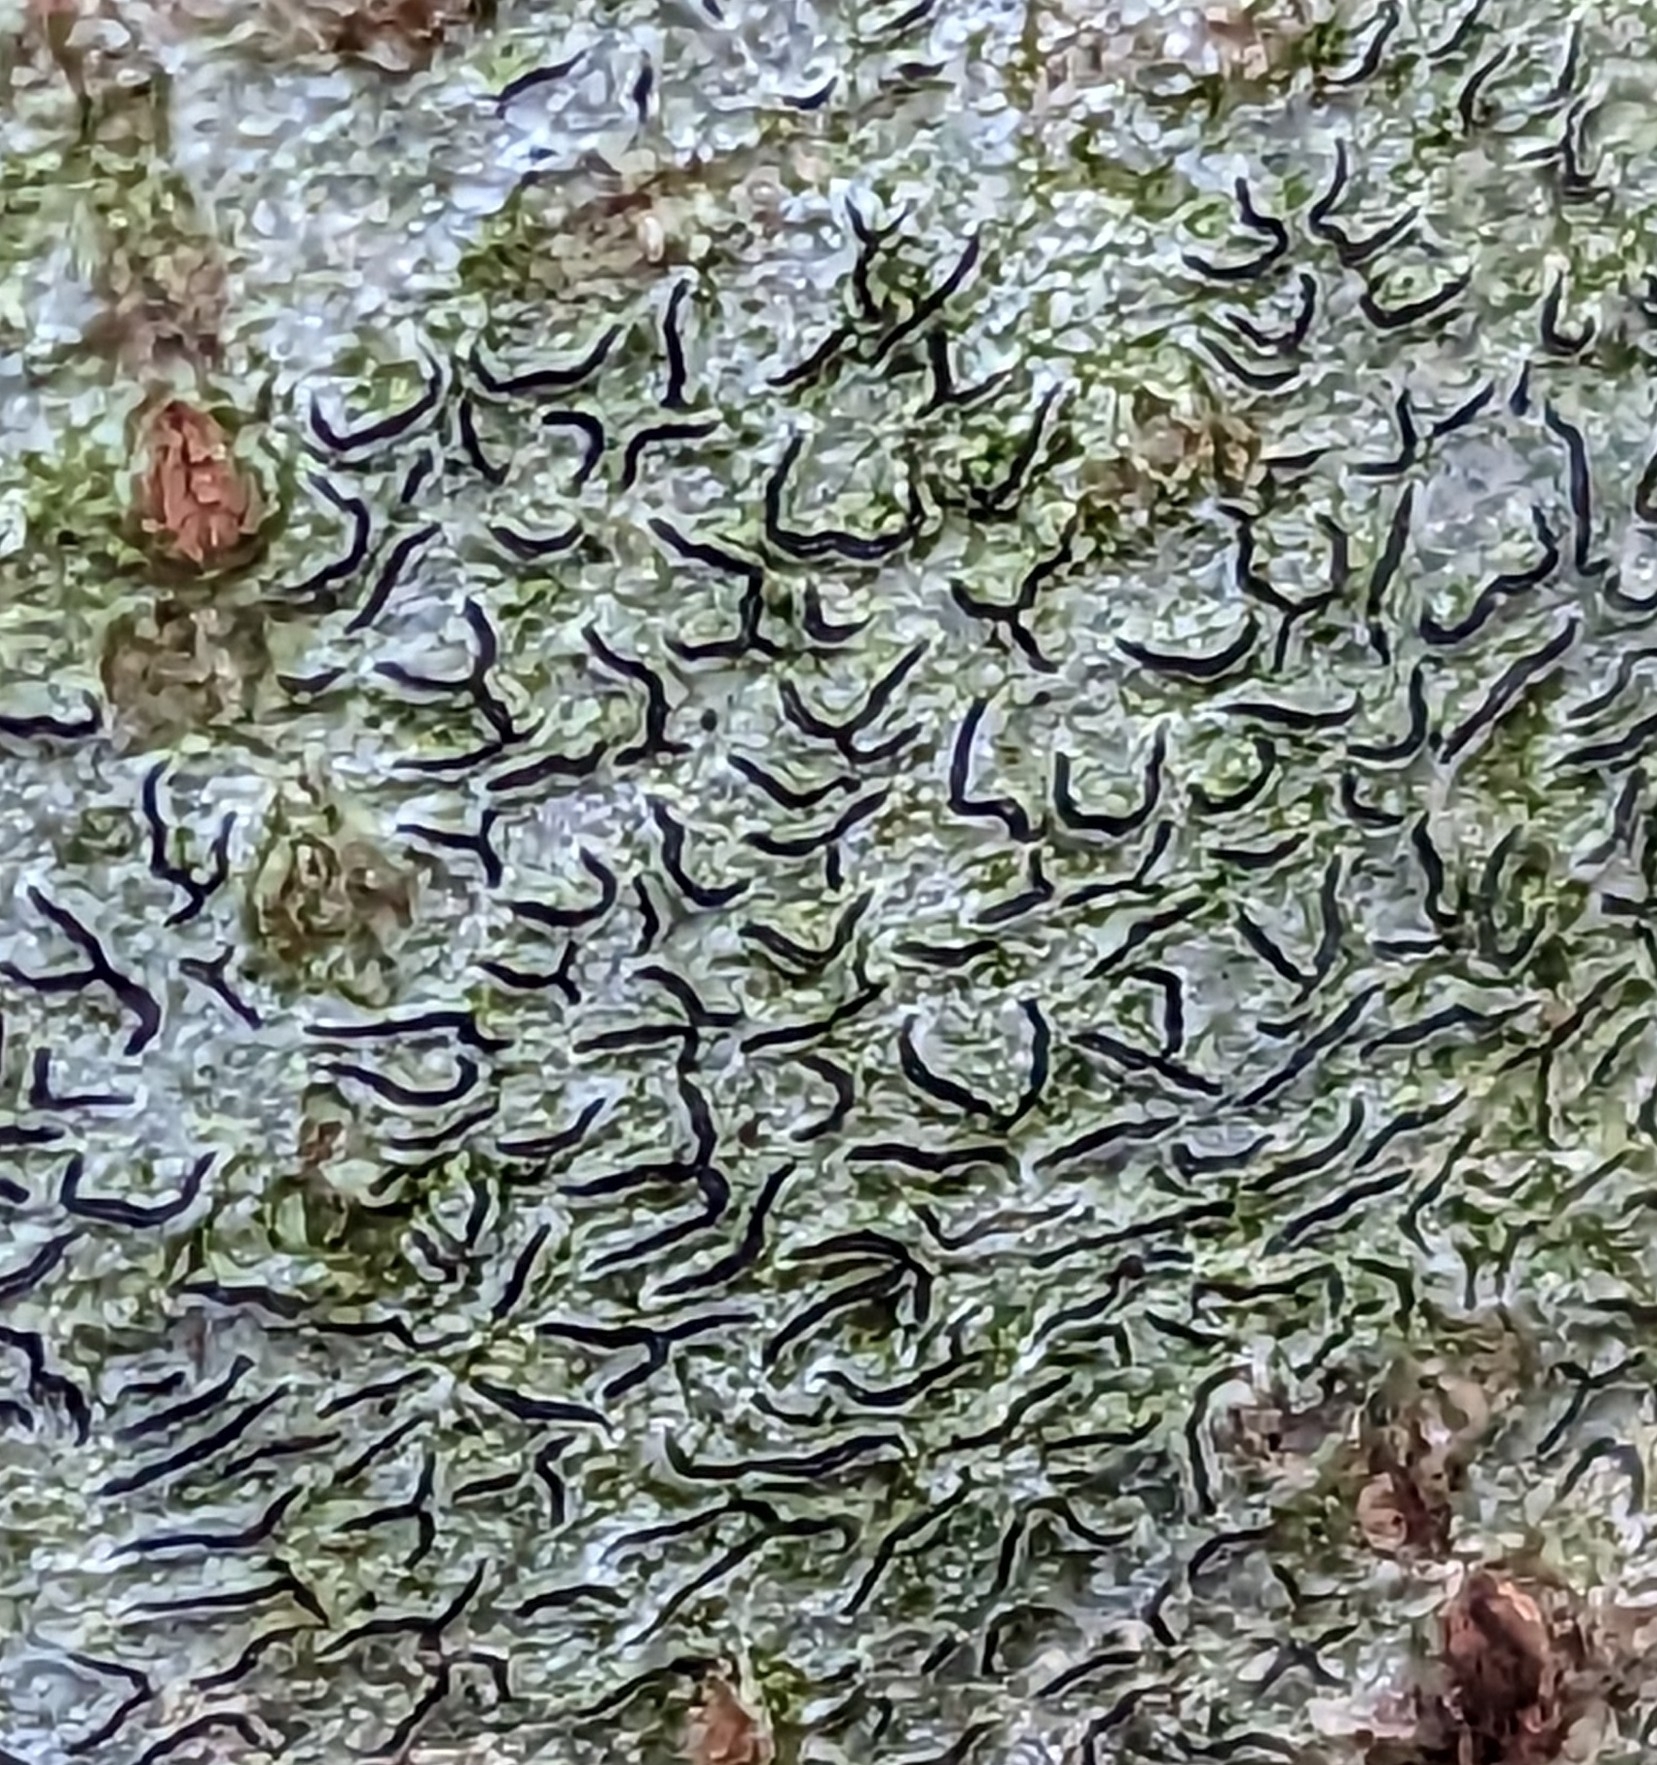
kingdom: Fungi
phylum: Ascomycota
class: Lecanoromycetes
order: Ostropales
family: Graphidaceae
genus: Graphis
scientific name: Graphis scripta
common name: Script lichen
